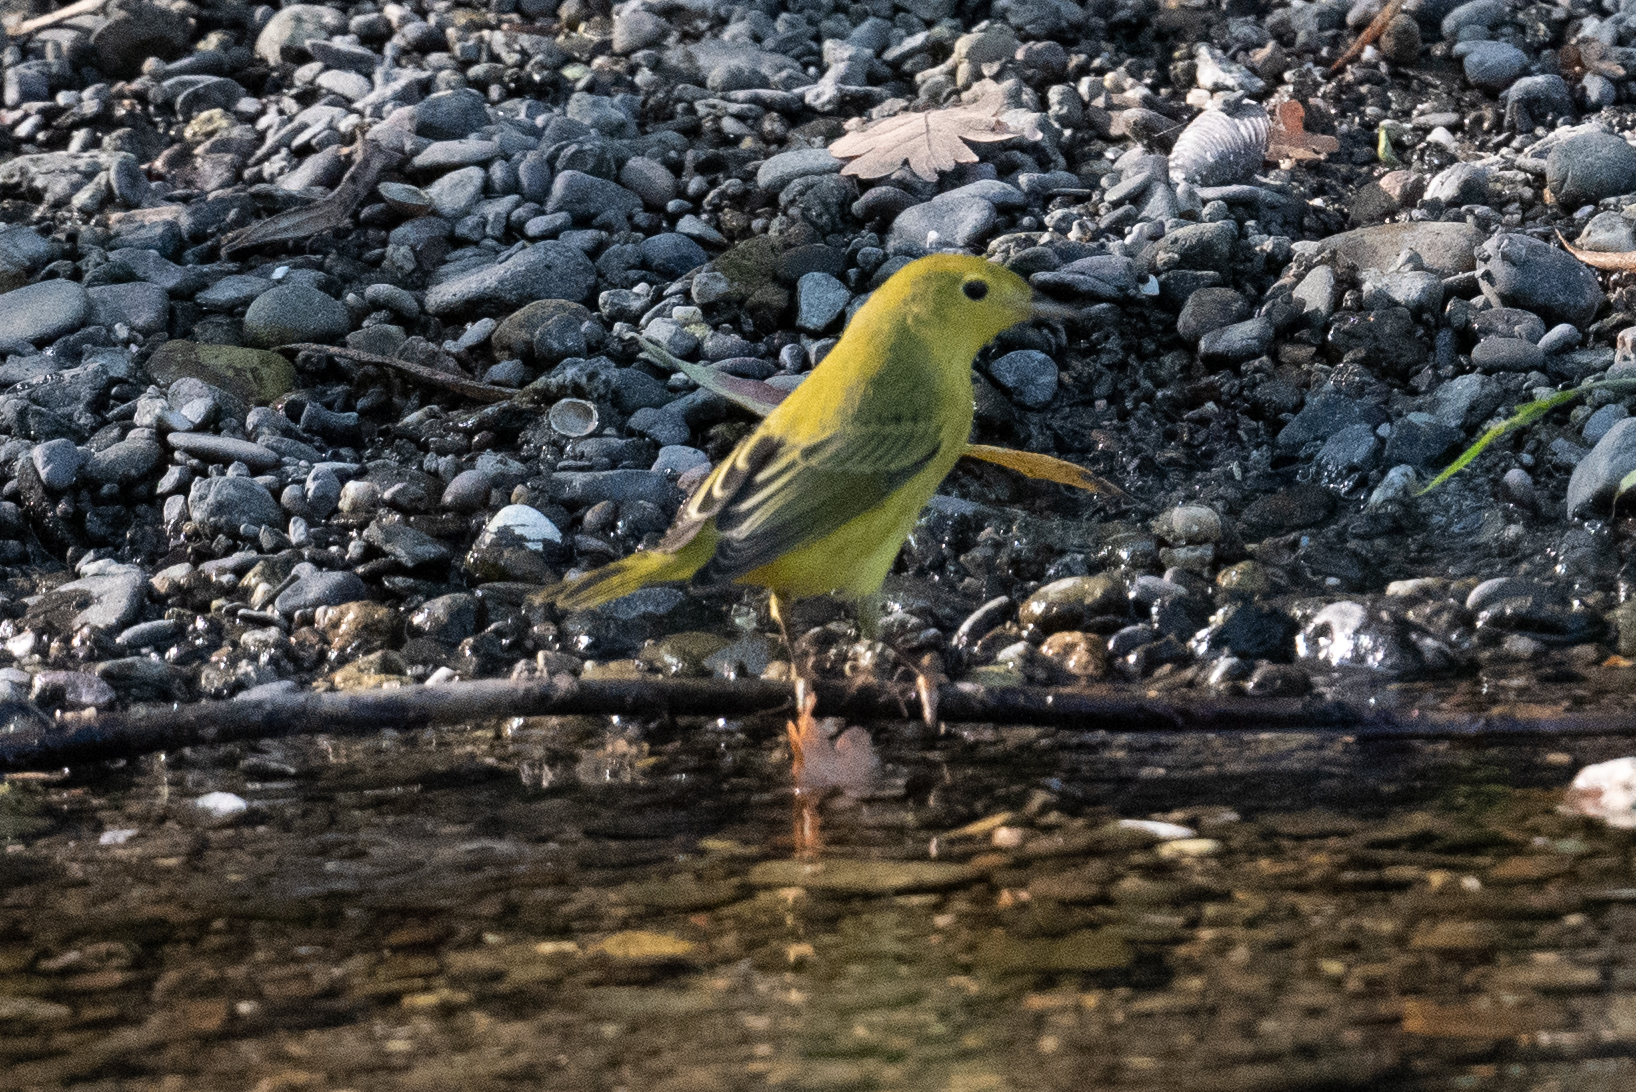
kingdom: Animalia
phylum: Chordata
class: Aves
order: Passeriformes
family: Parulidae
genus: Setophaga
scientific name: Setophaga petechia
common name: Yellow warbler
